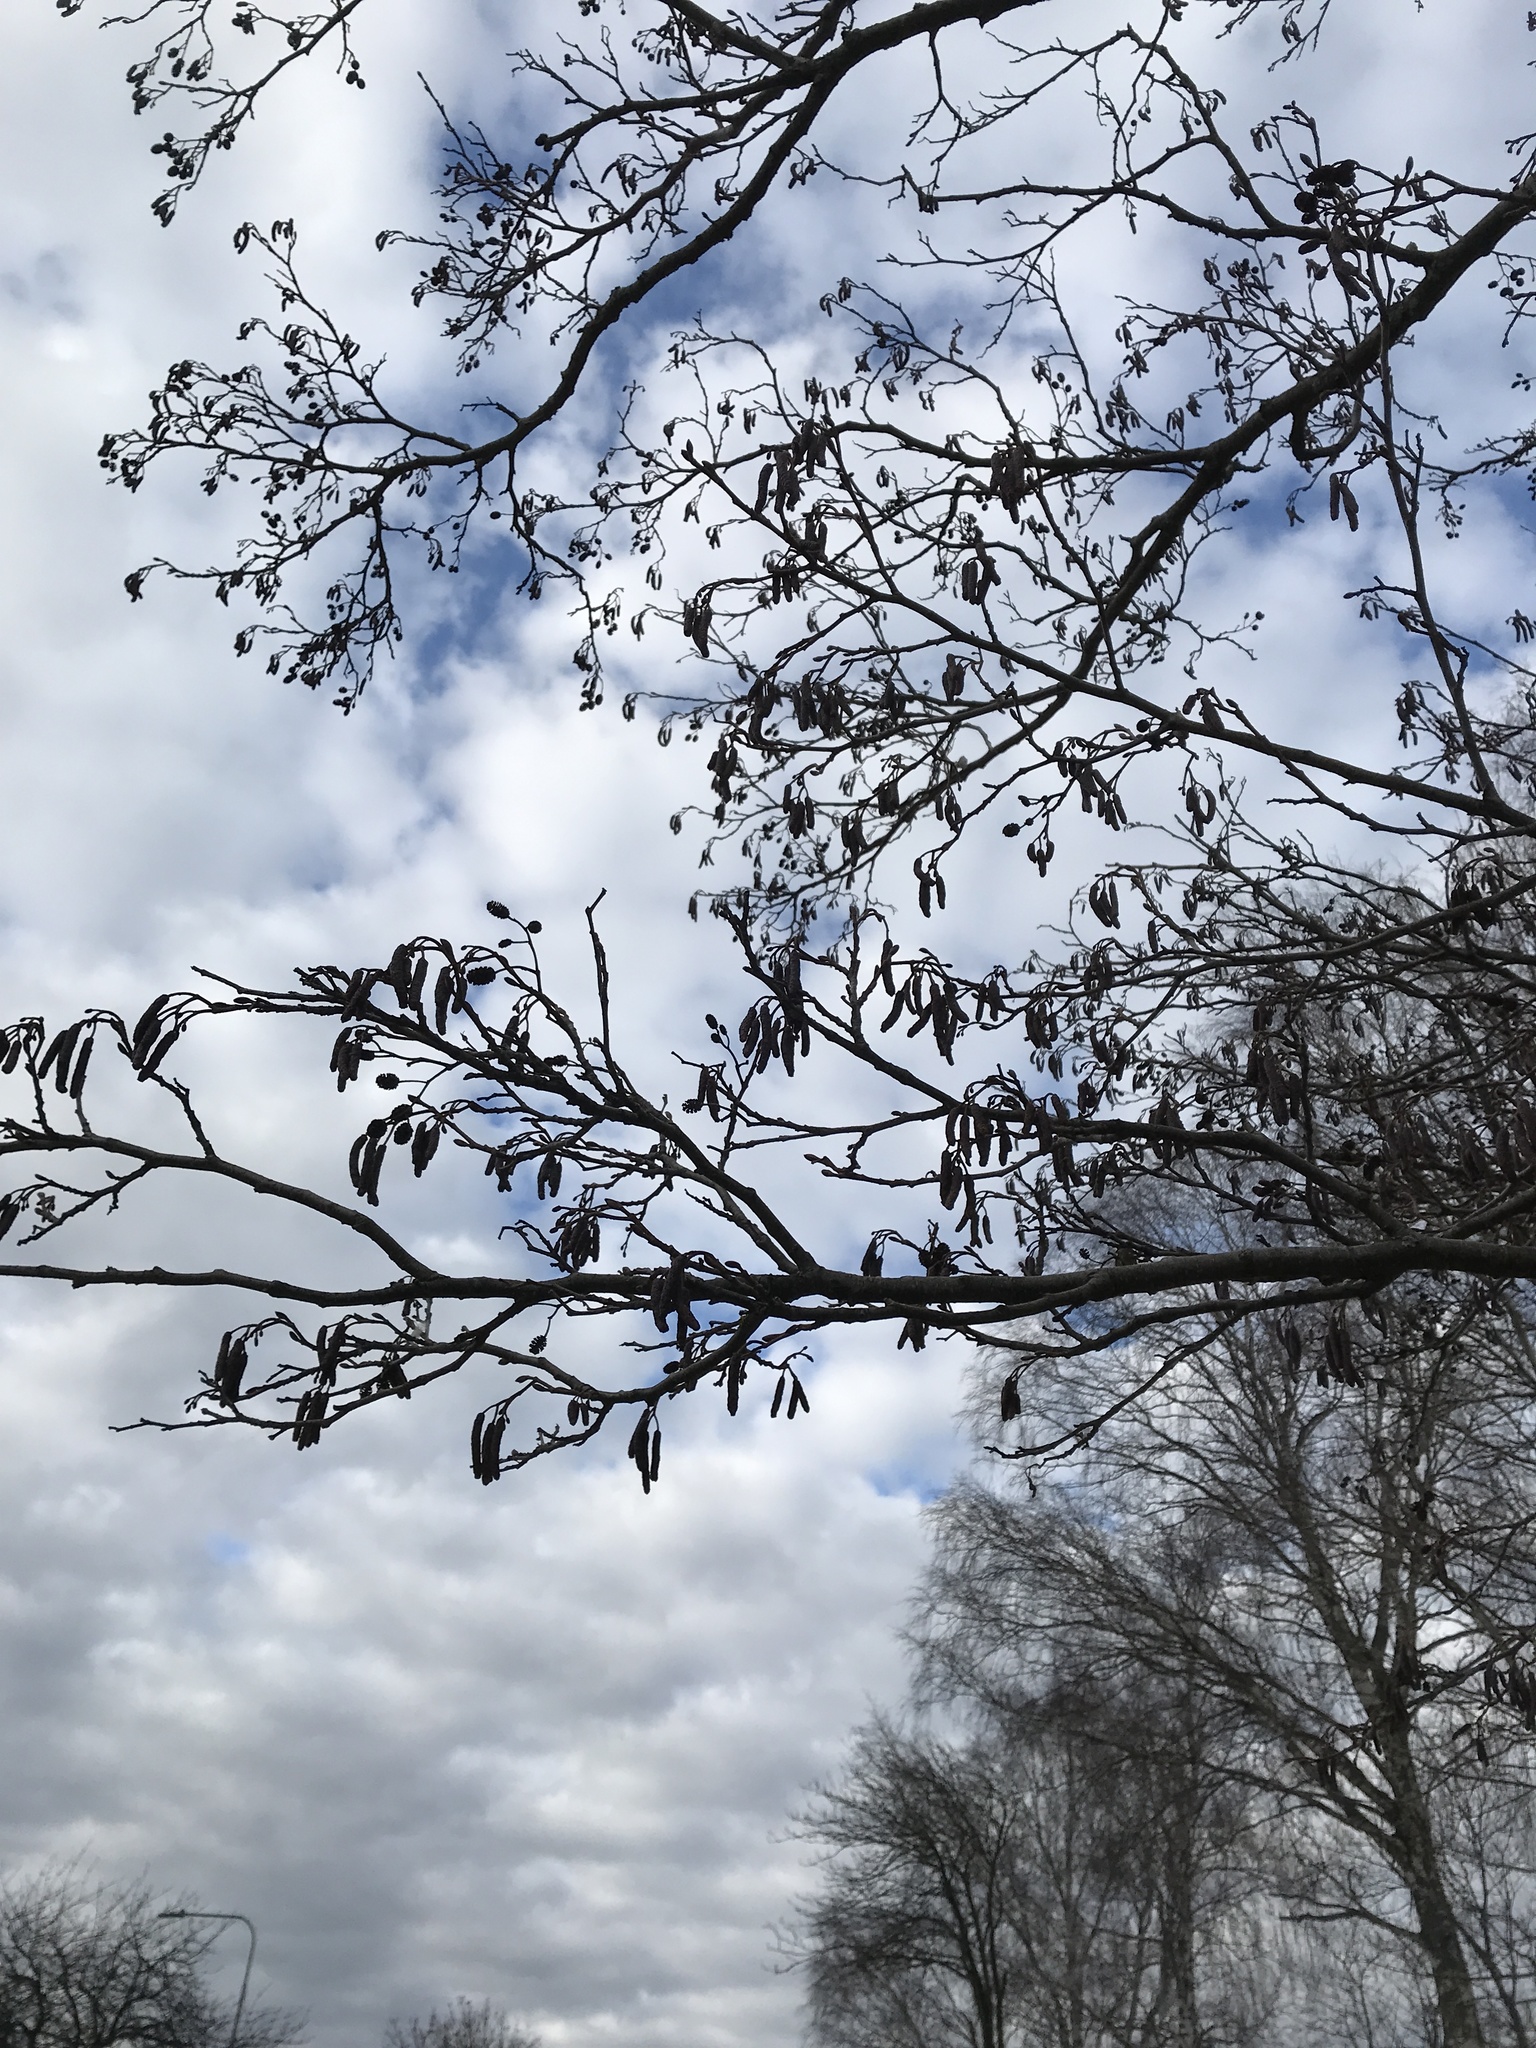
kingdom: Plantae
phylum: Tracheophyta
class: Magnoliopsida
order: Fagales
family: Betulaceae
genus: Alnus
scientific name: Alnus glutinosa
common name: Black alder
